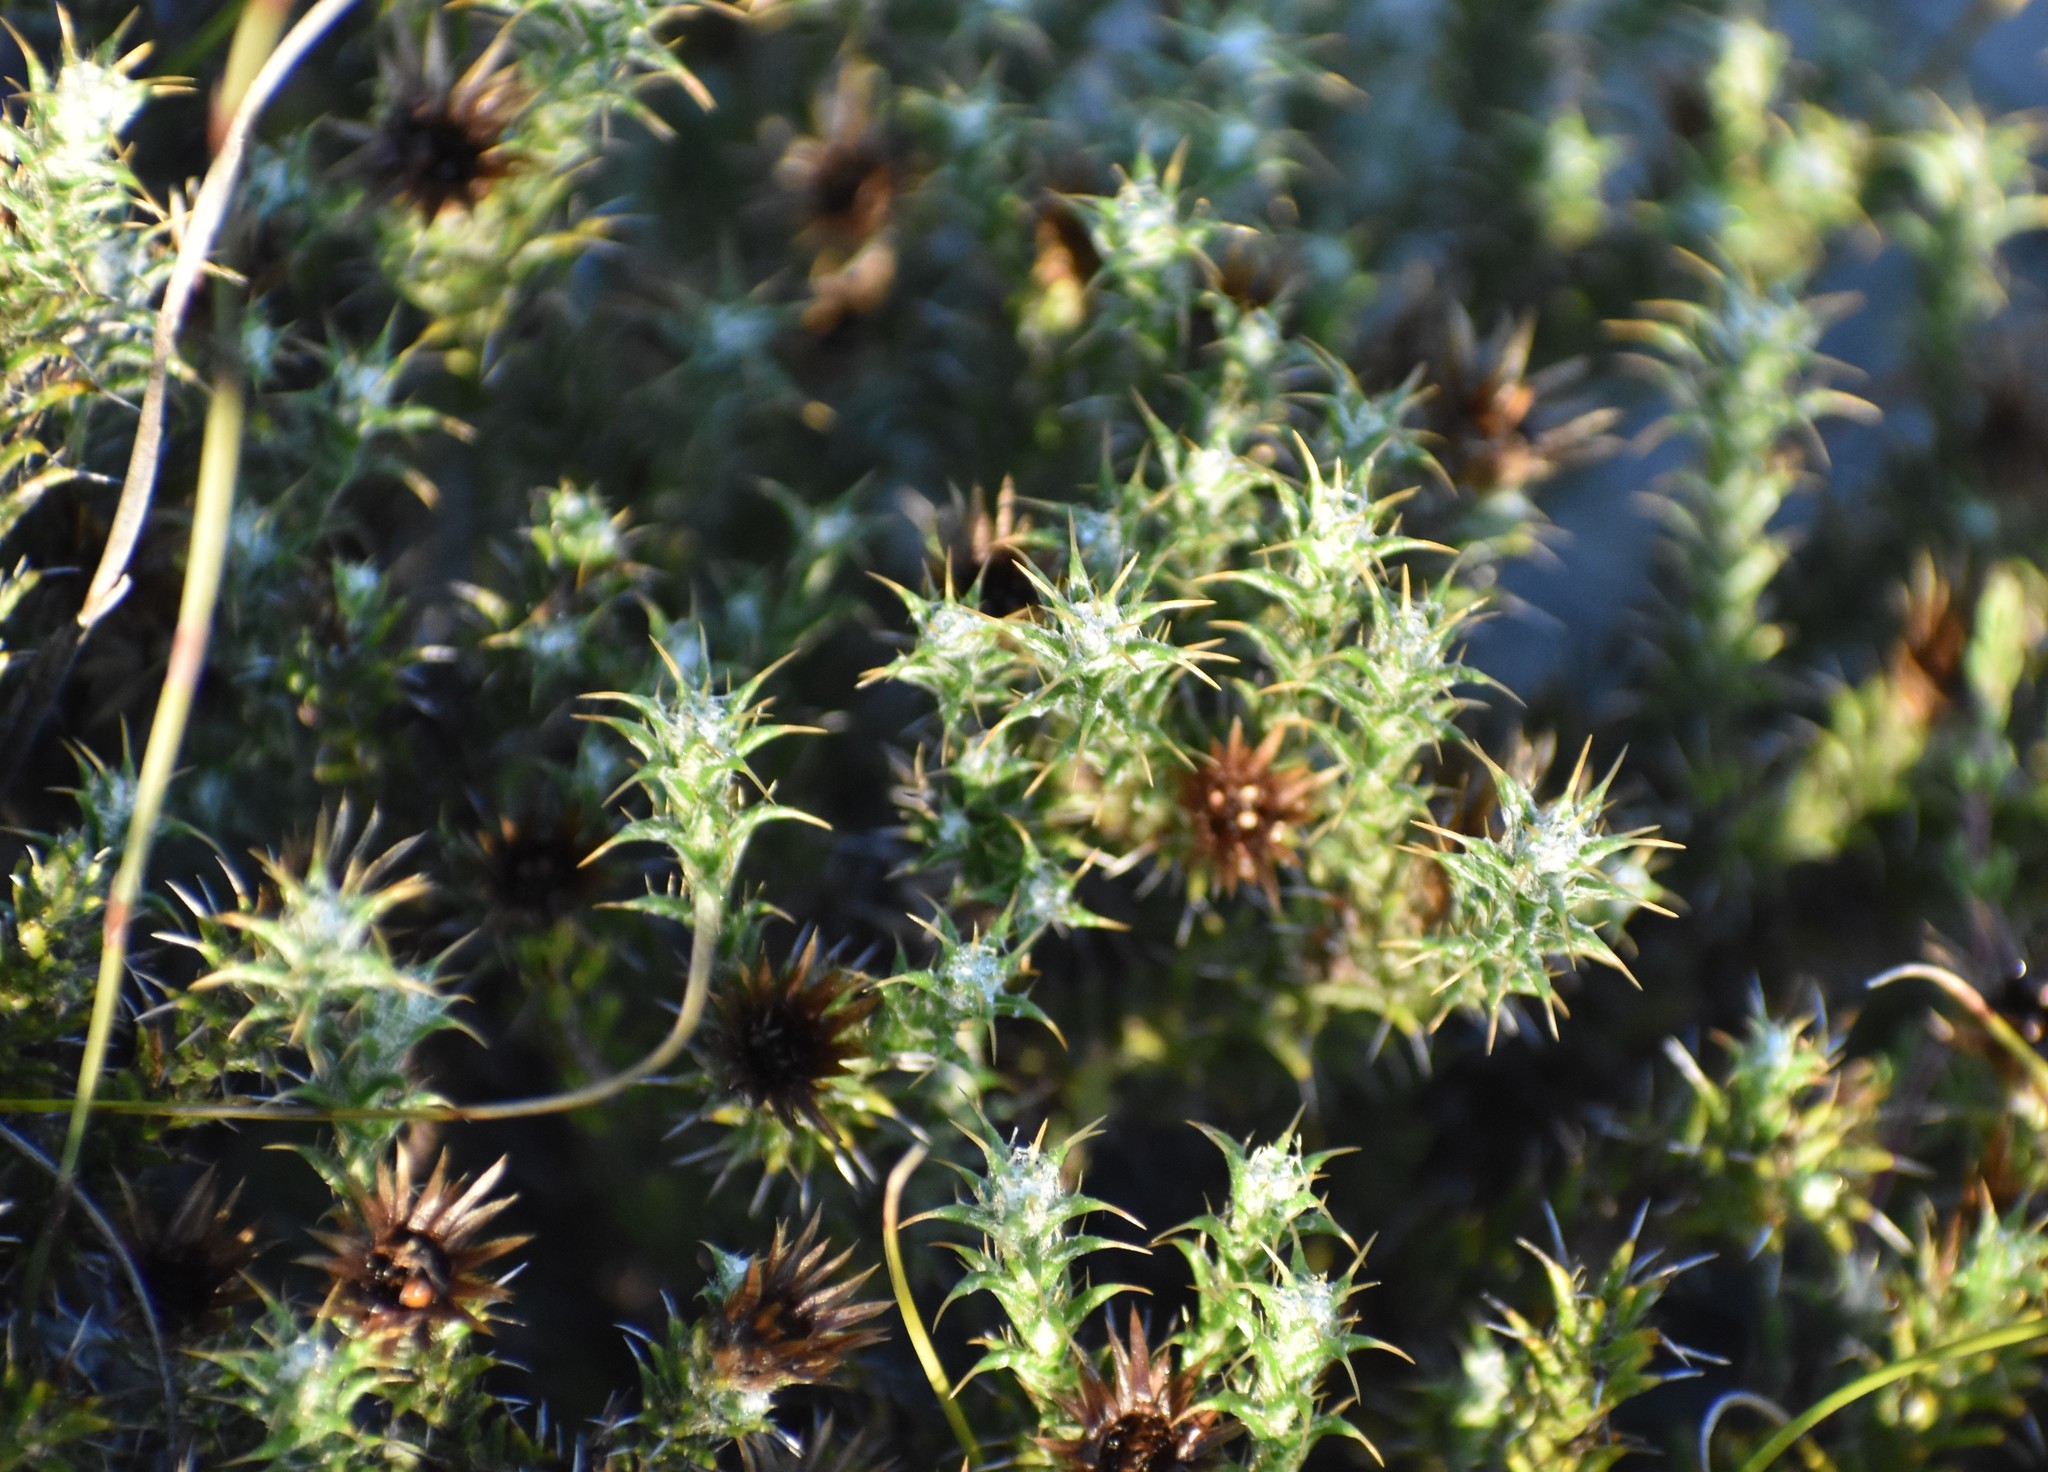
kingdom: Plantae
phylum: Tracheophyta
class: Magnoliopsida
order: Asterales
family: Asteraceae
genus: Cullumia
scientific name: Cullumia bisulca
